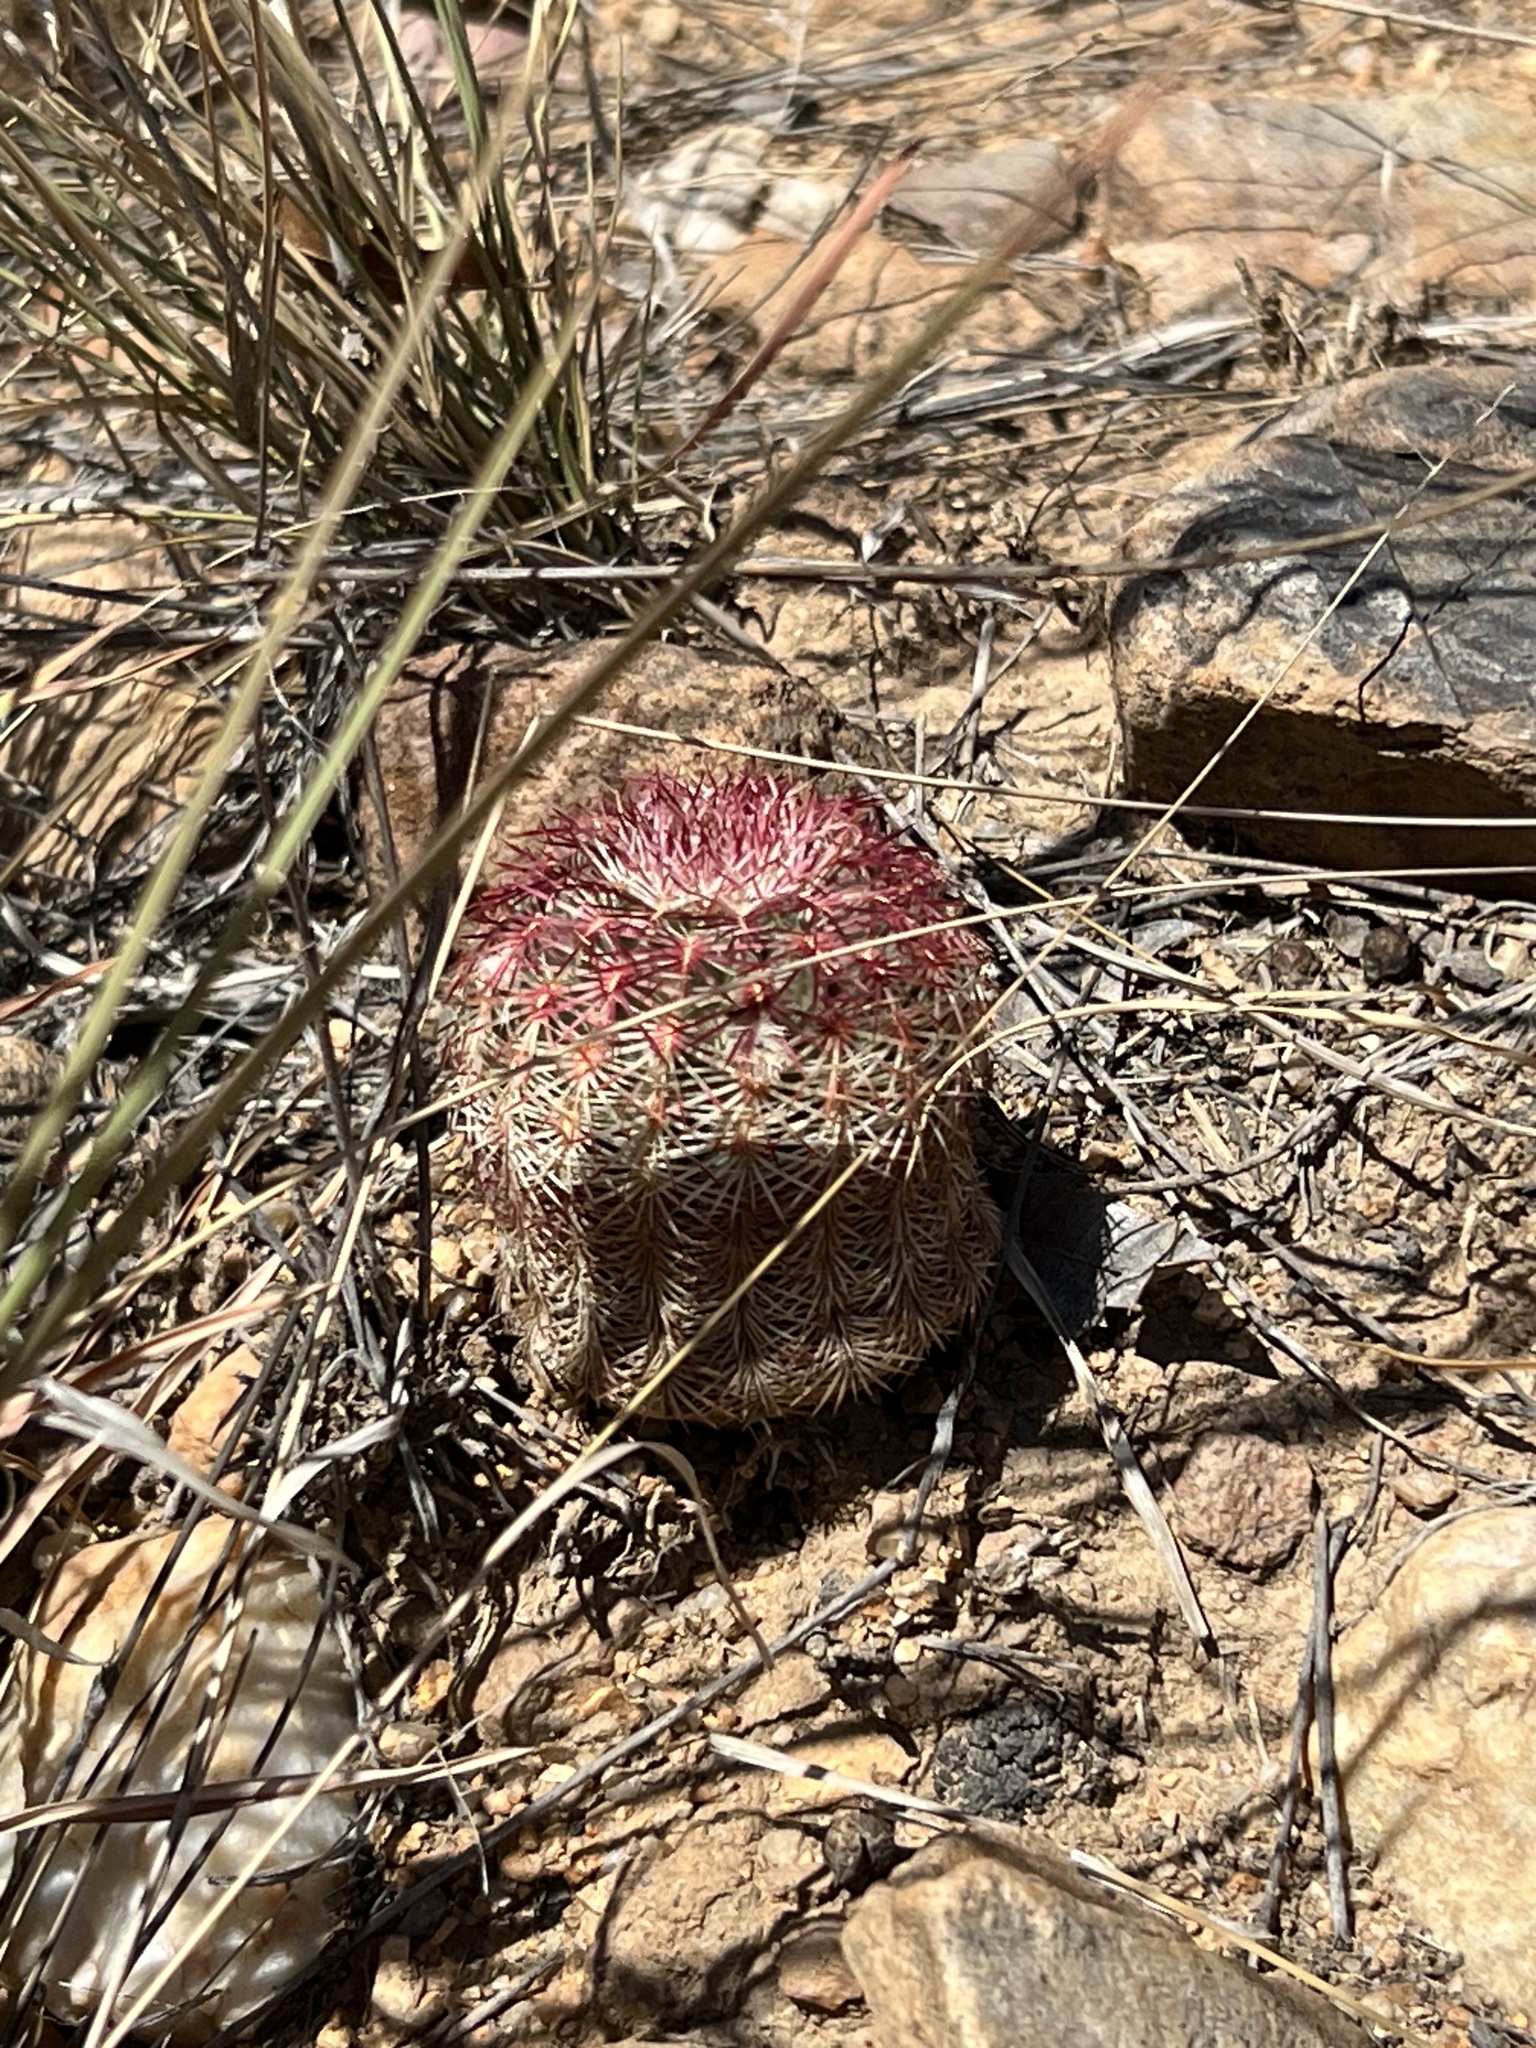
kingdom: Plantae
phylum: Tracheophyta
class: Magnoliopsida
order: Caryophyllales
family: Cactaceae
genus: Echinocereus
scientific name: Echinocereus rigidissimus
